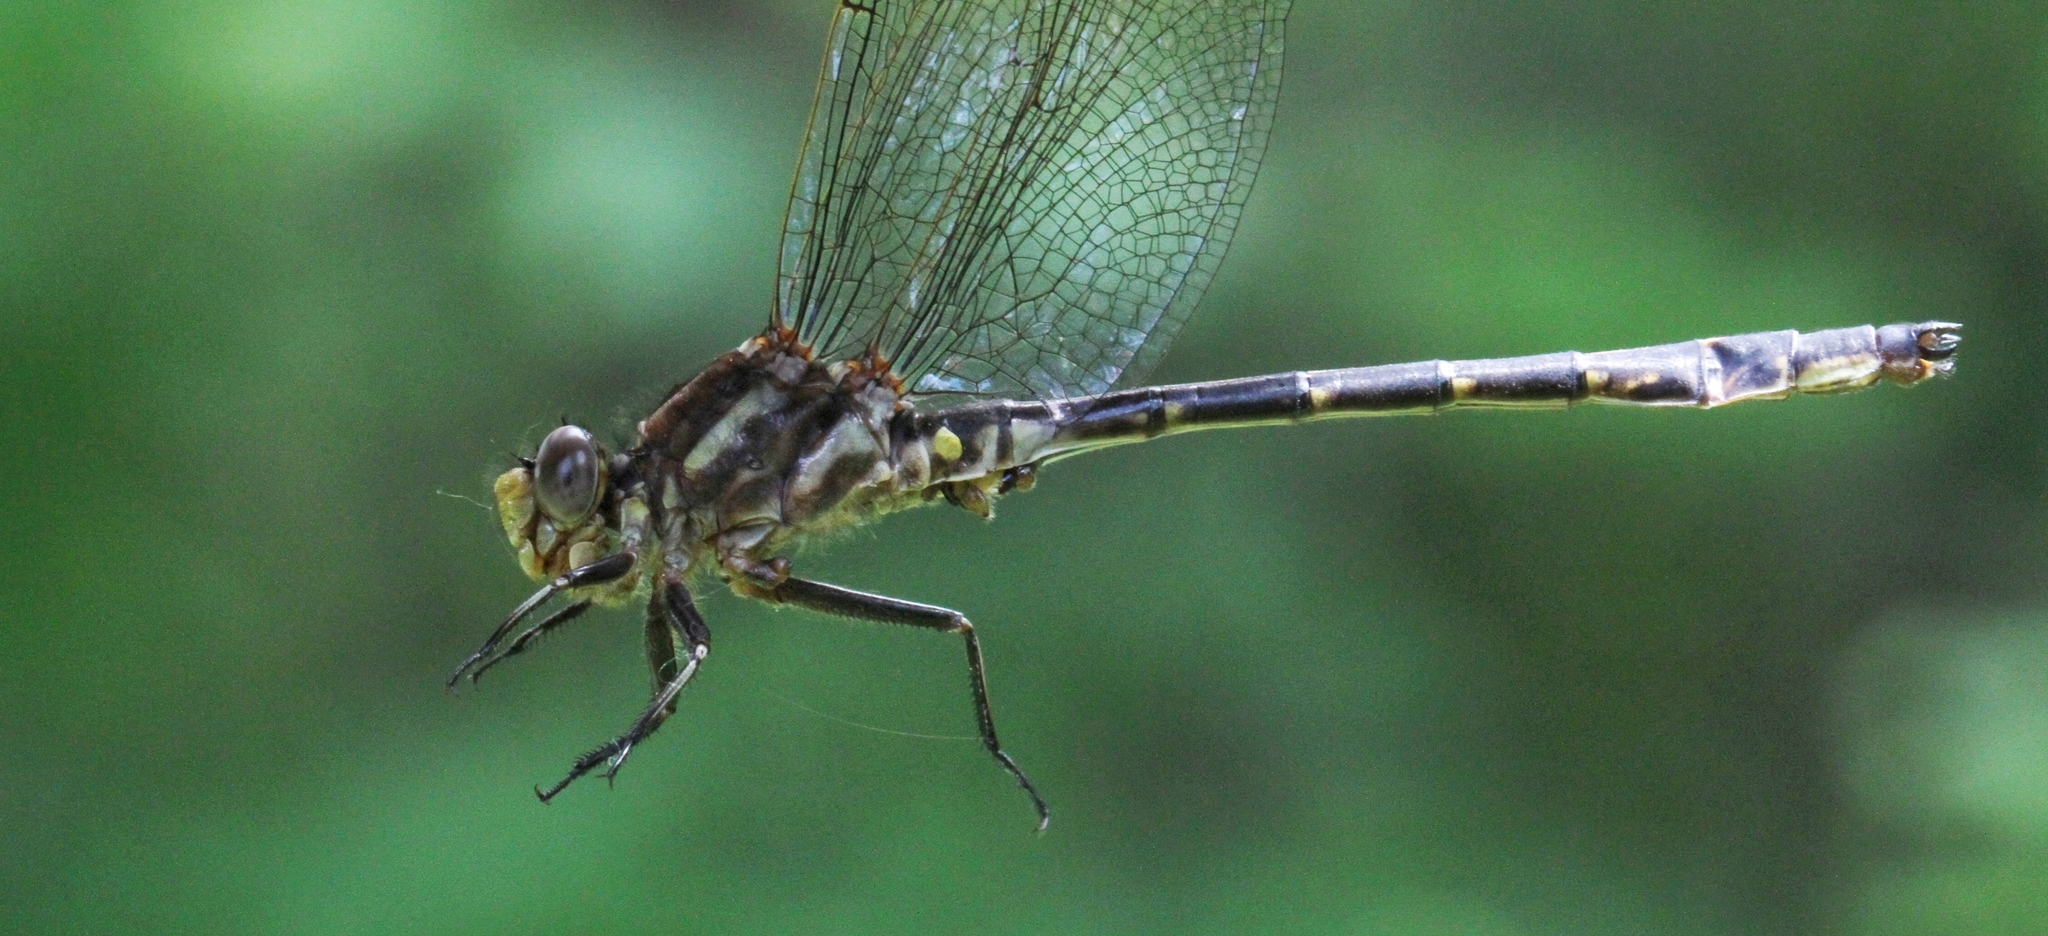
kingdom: Animalia
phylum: Arthropoda
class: Insecta
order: Odonata
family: Gomphidae
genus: Phanogomphus
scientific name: Phanogomphus spicatus
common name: Dusky clubtail
